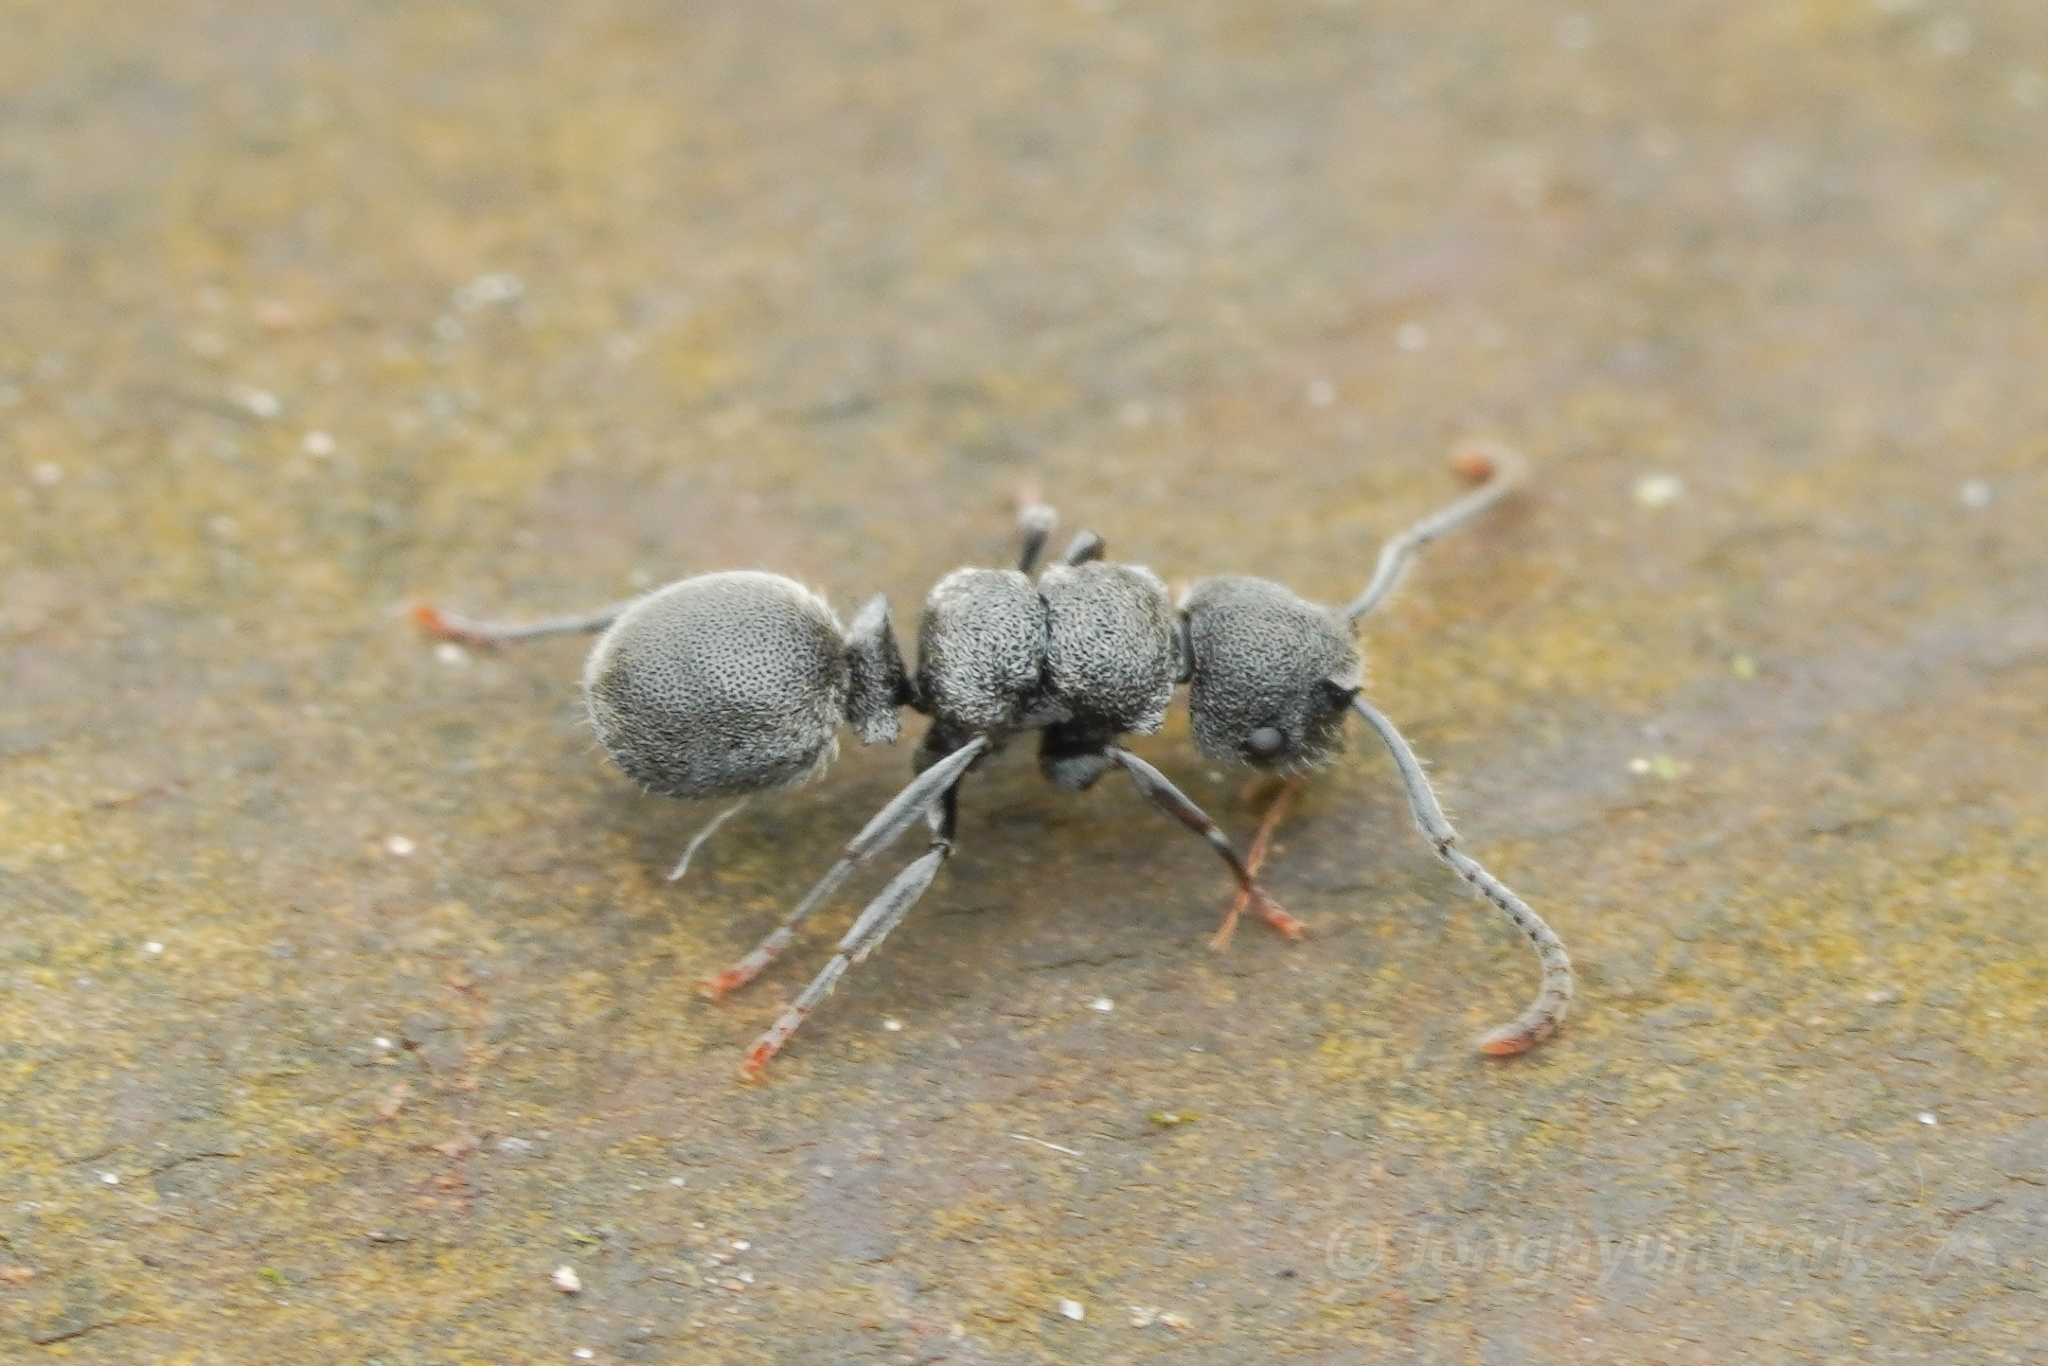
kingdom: Animalia
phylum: Arthropoda
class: Insecta
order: Hymenoptera
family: Formicidae
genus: Echinopla
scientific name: Echinopla rugosa
